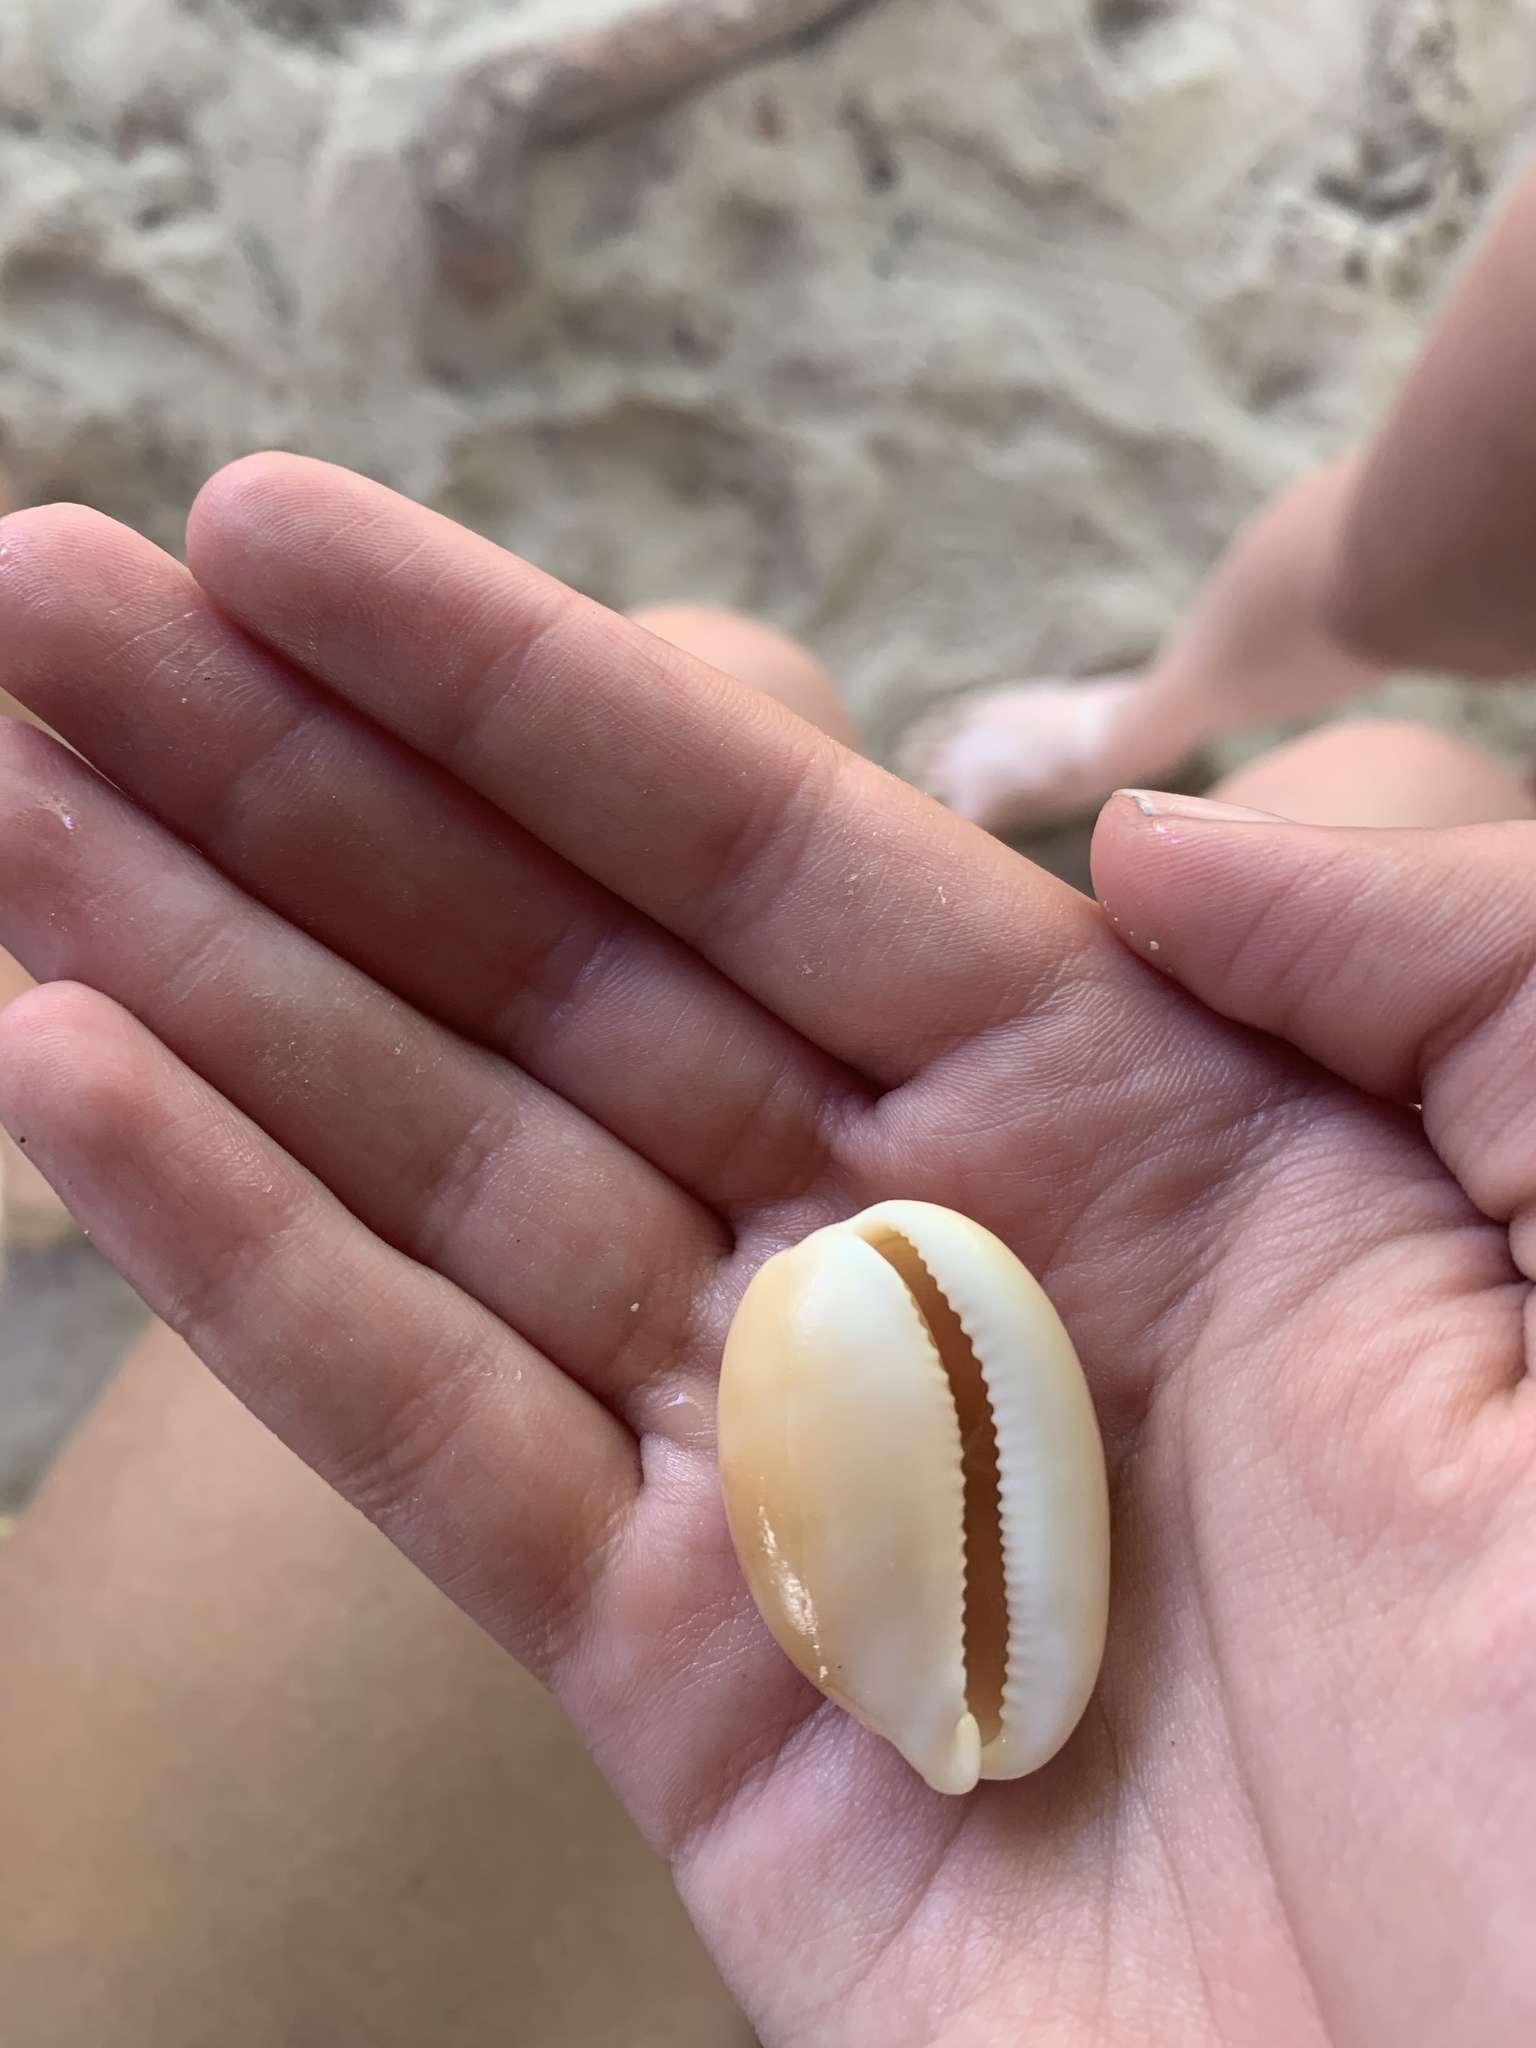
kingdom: Animalia
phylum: Mollusca
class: Gastropoda
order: Littorinimorpha
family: Cypraeidae
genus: Luria
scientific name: Luria cinerea
